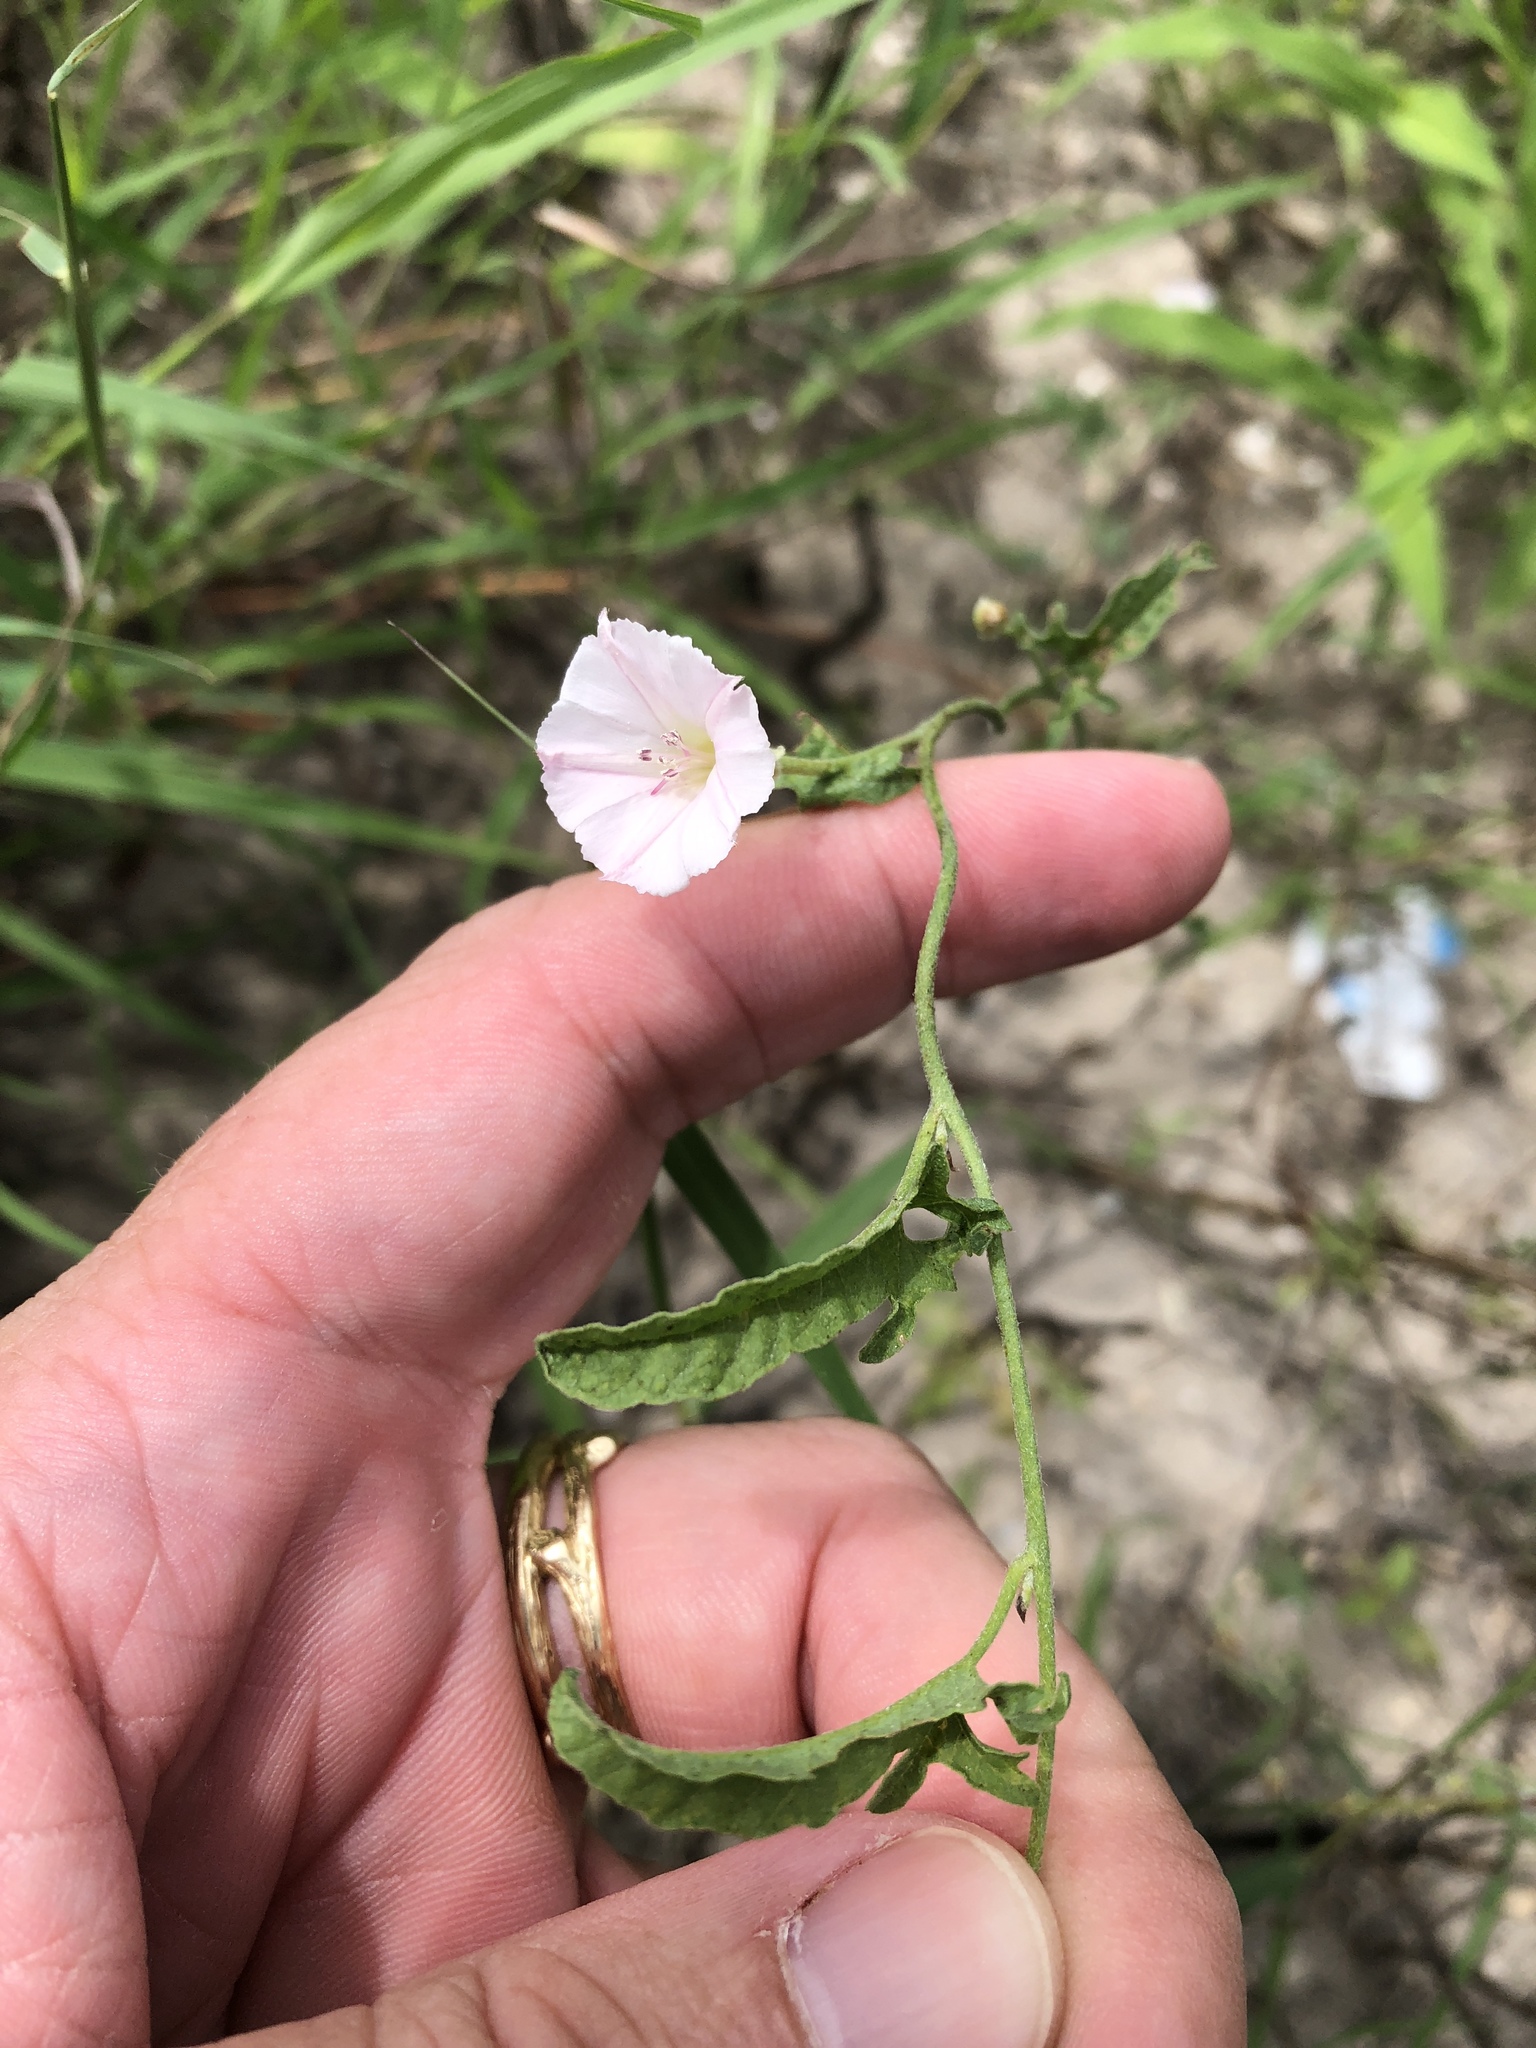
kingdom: Plantae
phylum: Tracheophyta
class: Magnoliopsida
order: Solanales
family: Convolvulaceae
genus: Convolvulus
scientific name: Convolvulus equitans
